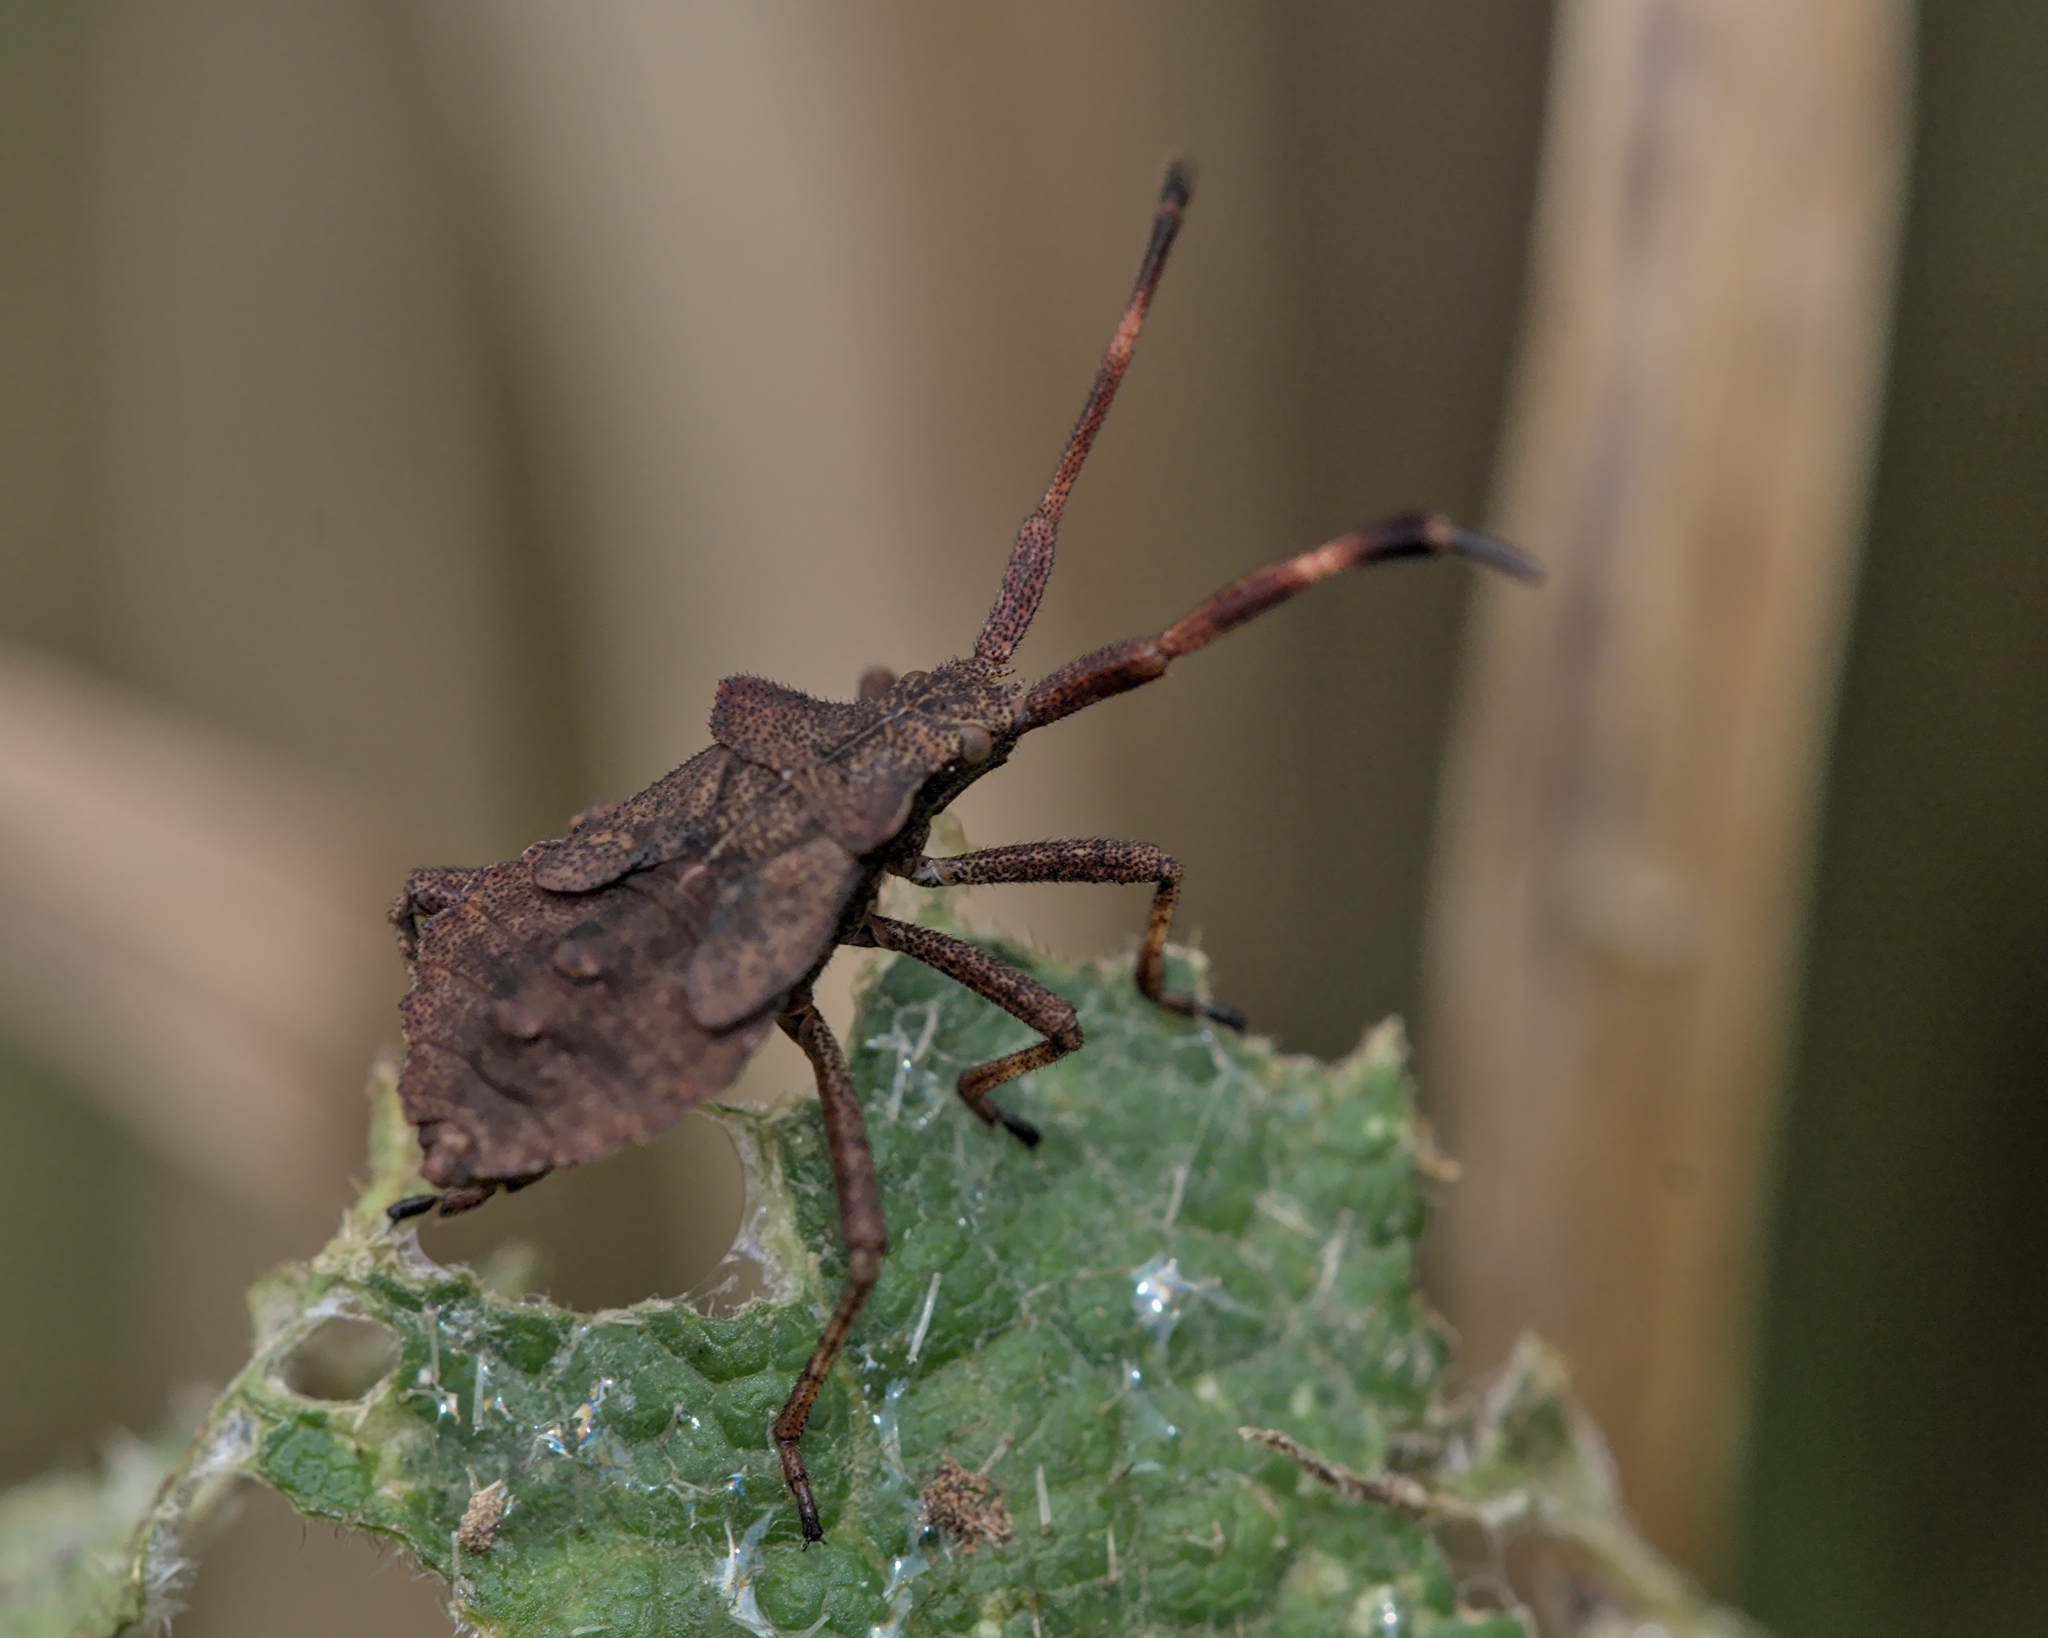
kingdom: Animalia
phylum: Arthropoda
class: Insecta
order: Hemiptera
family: Coreidae
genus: Coreus
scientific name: Coreus marginatus
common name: Dock bug
